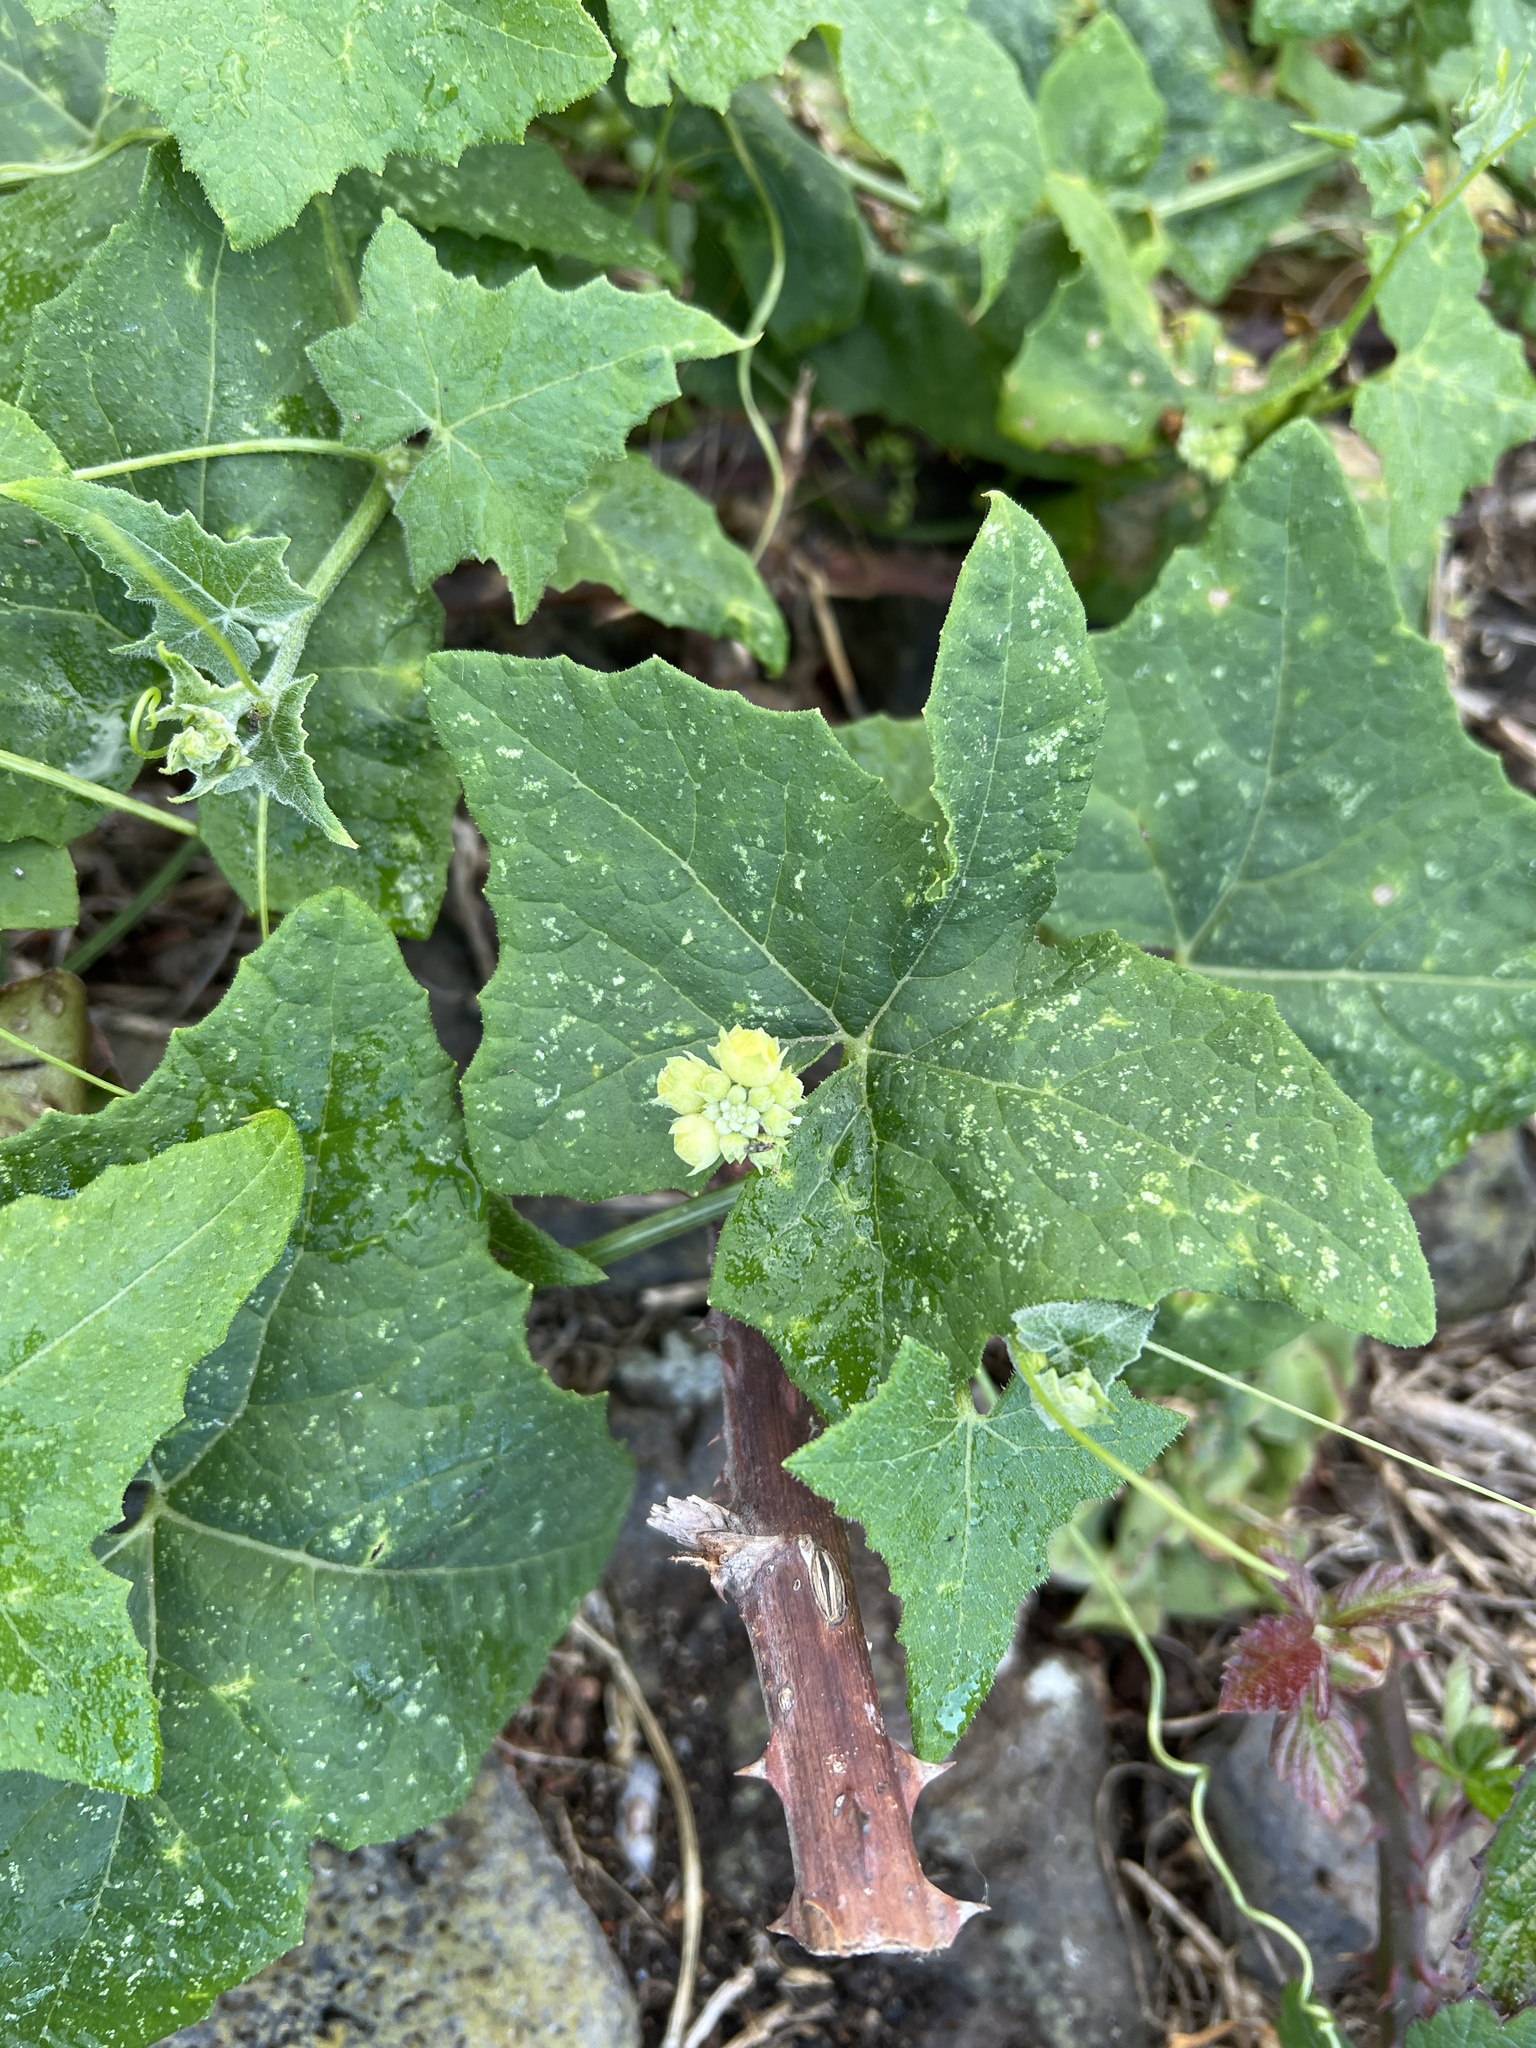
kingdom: Plantae
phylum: Tracheophyta
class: Magnoliopsida
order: Cucurbitales
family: Cucurbitaceae
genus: Bryonia
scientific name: Bryonia verrucosa
